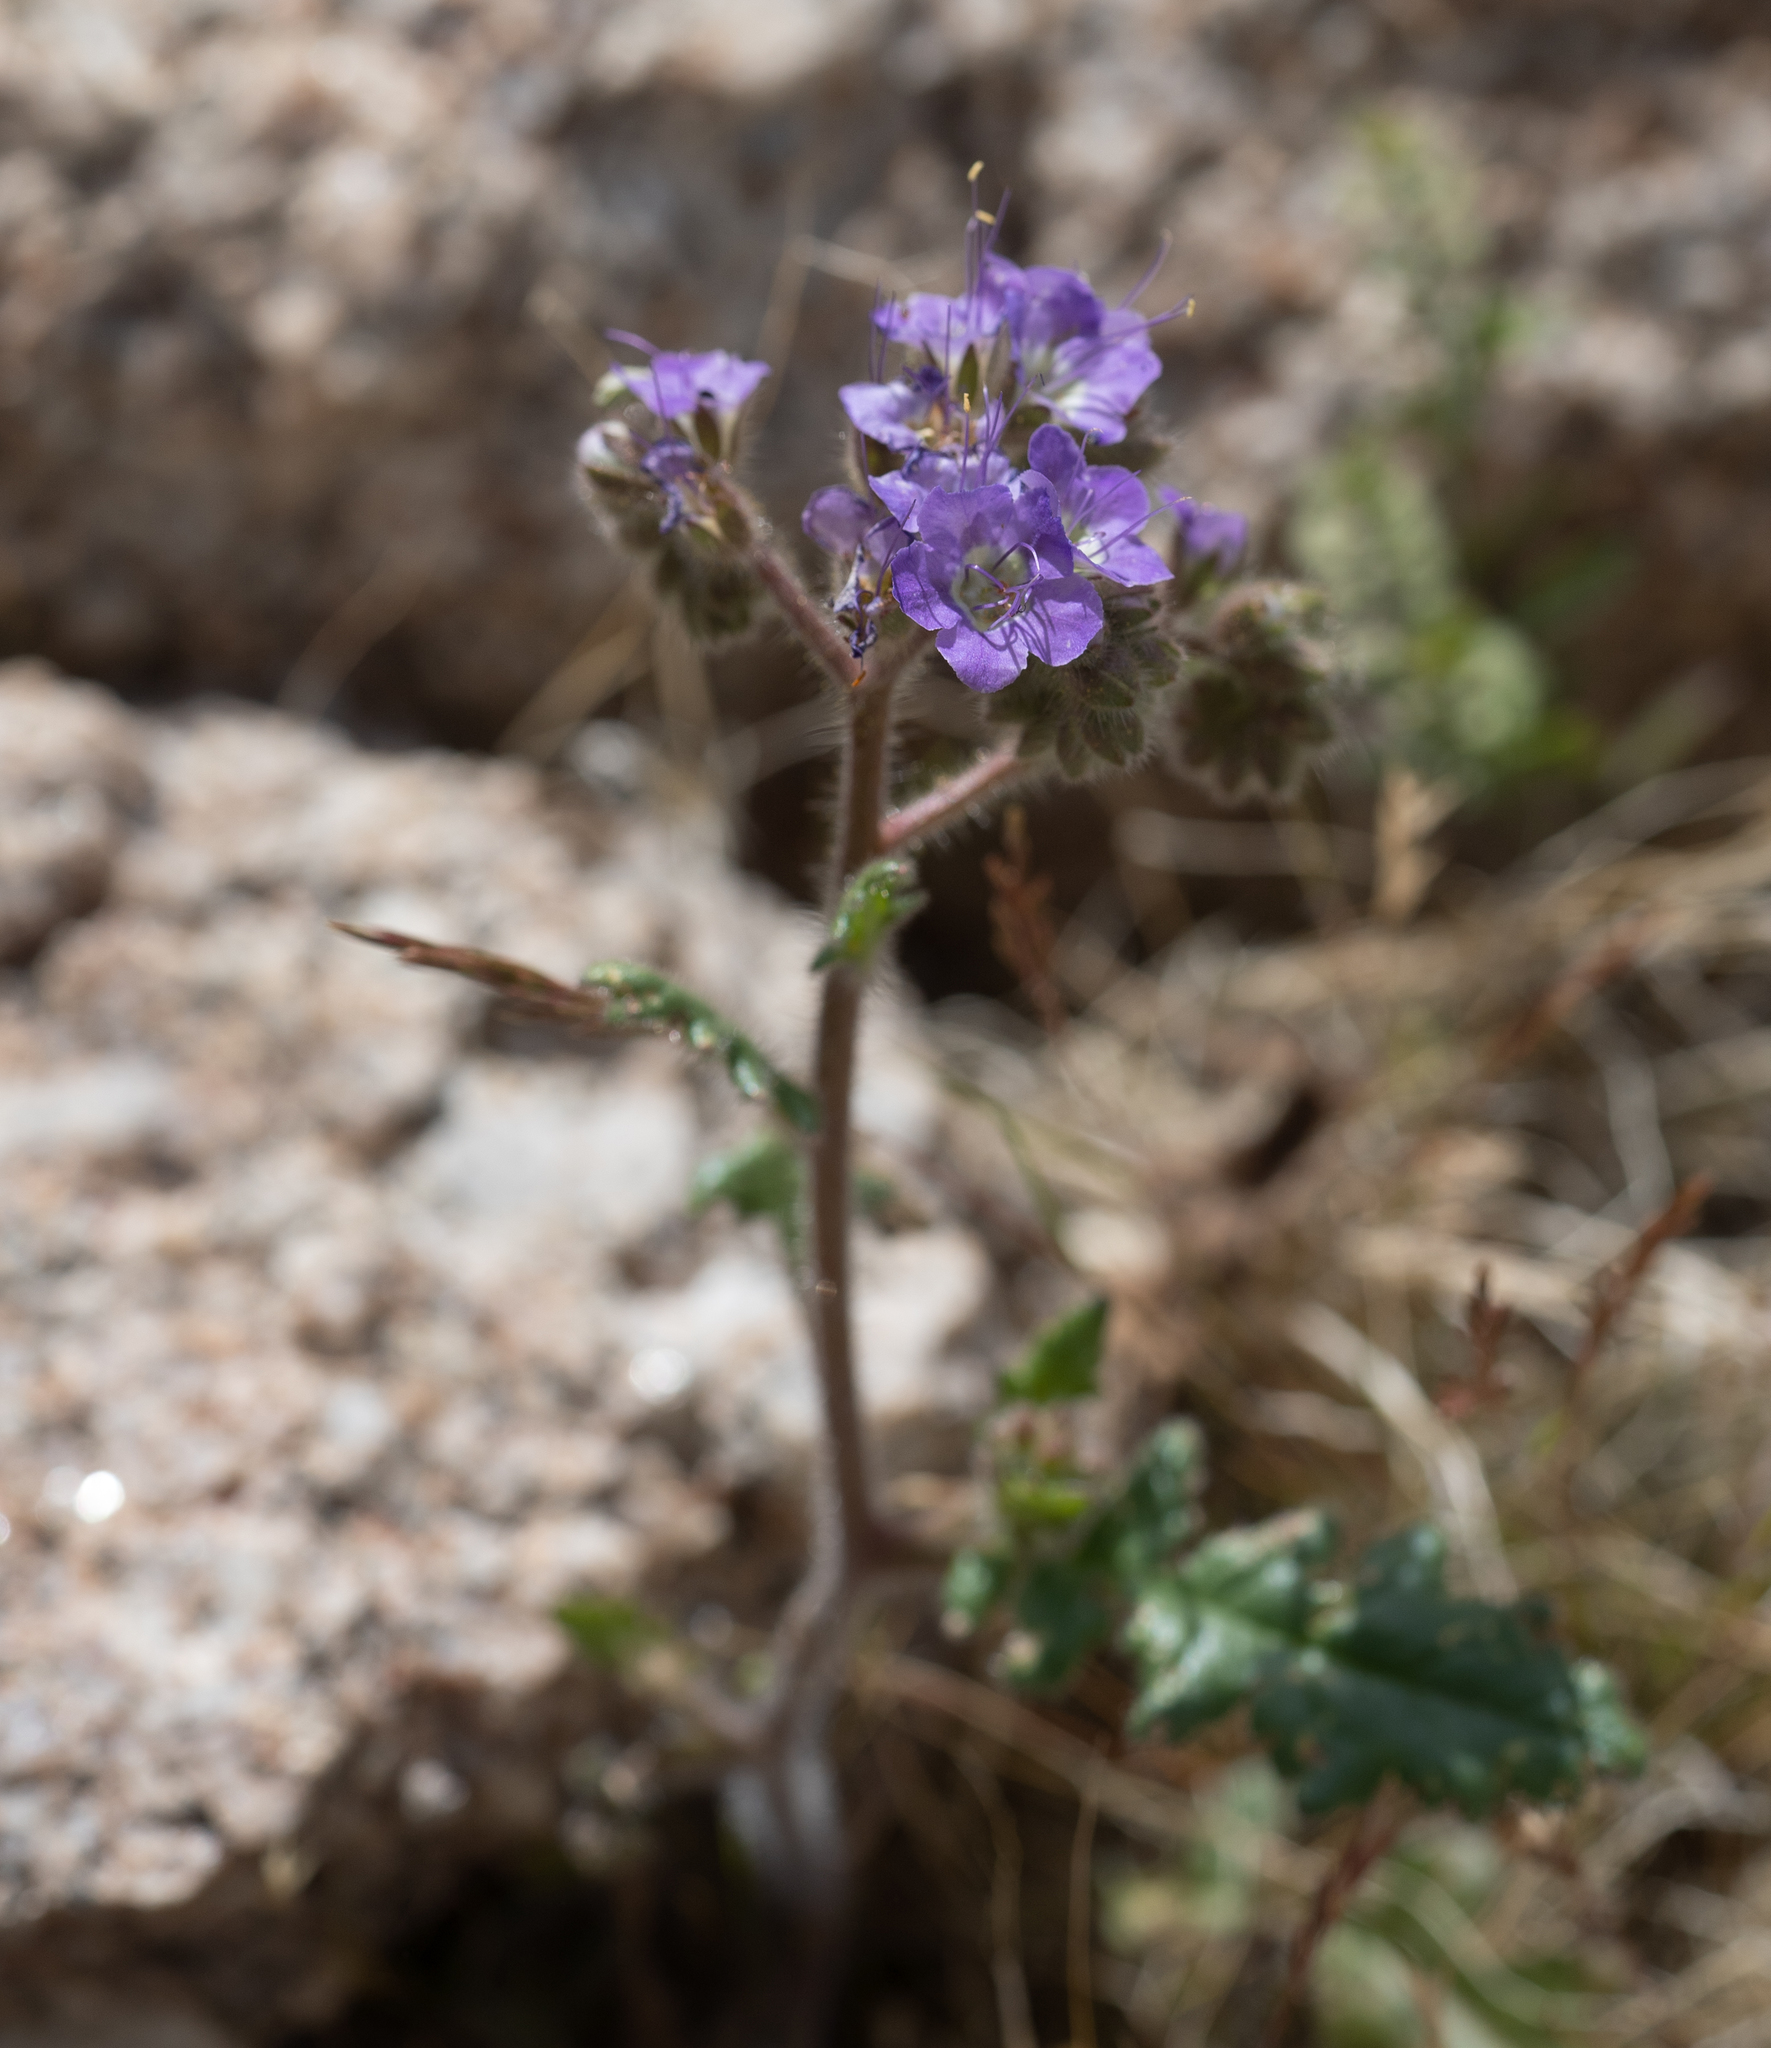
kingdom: Plantae
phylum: Tracheophyta
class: Magnoliopsida
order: Boraginales
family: Hydrophyllaceae
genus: Phacelia
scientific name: Phacelia crenulata
